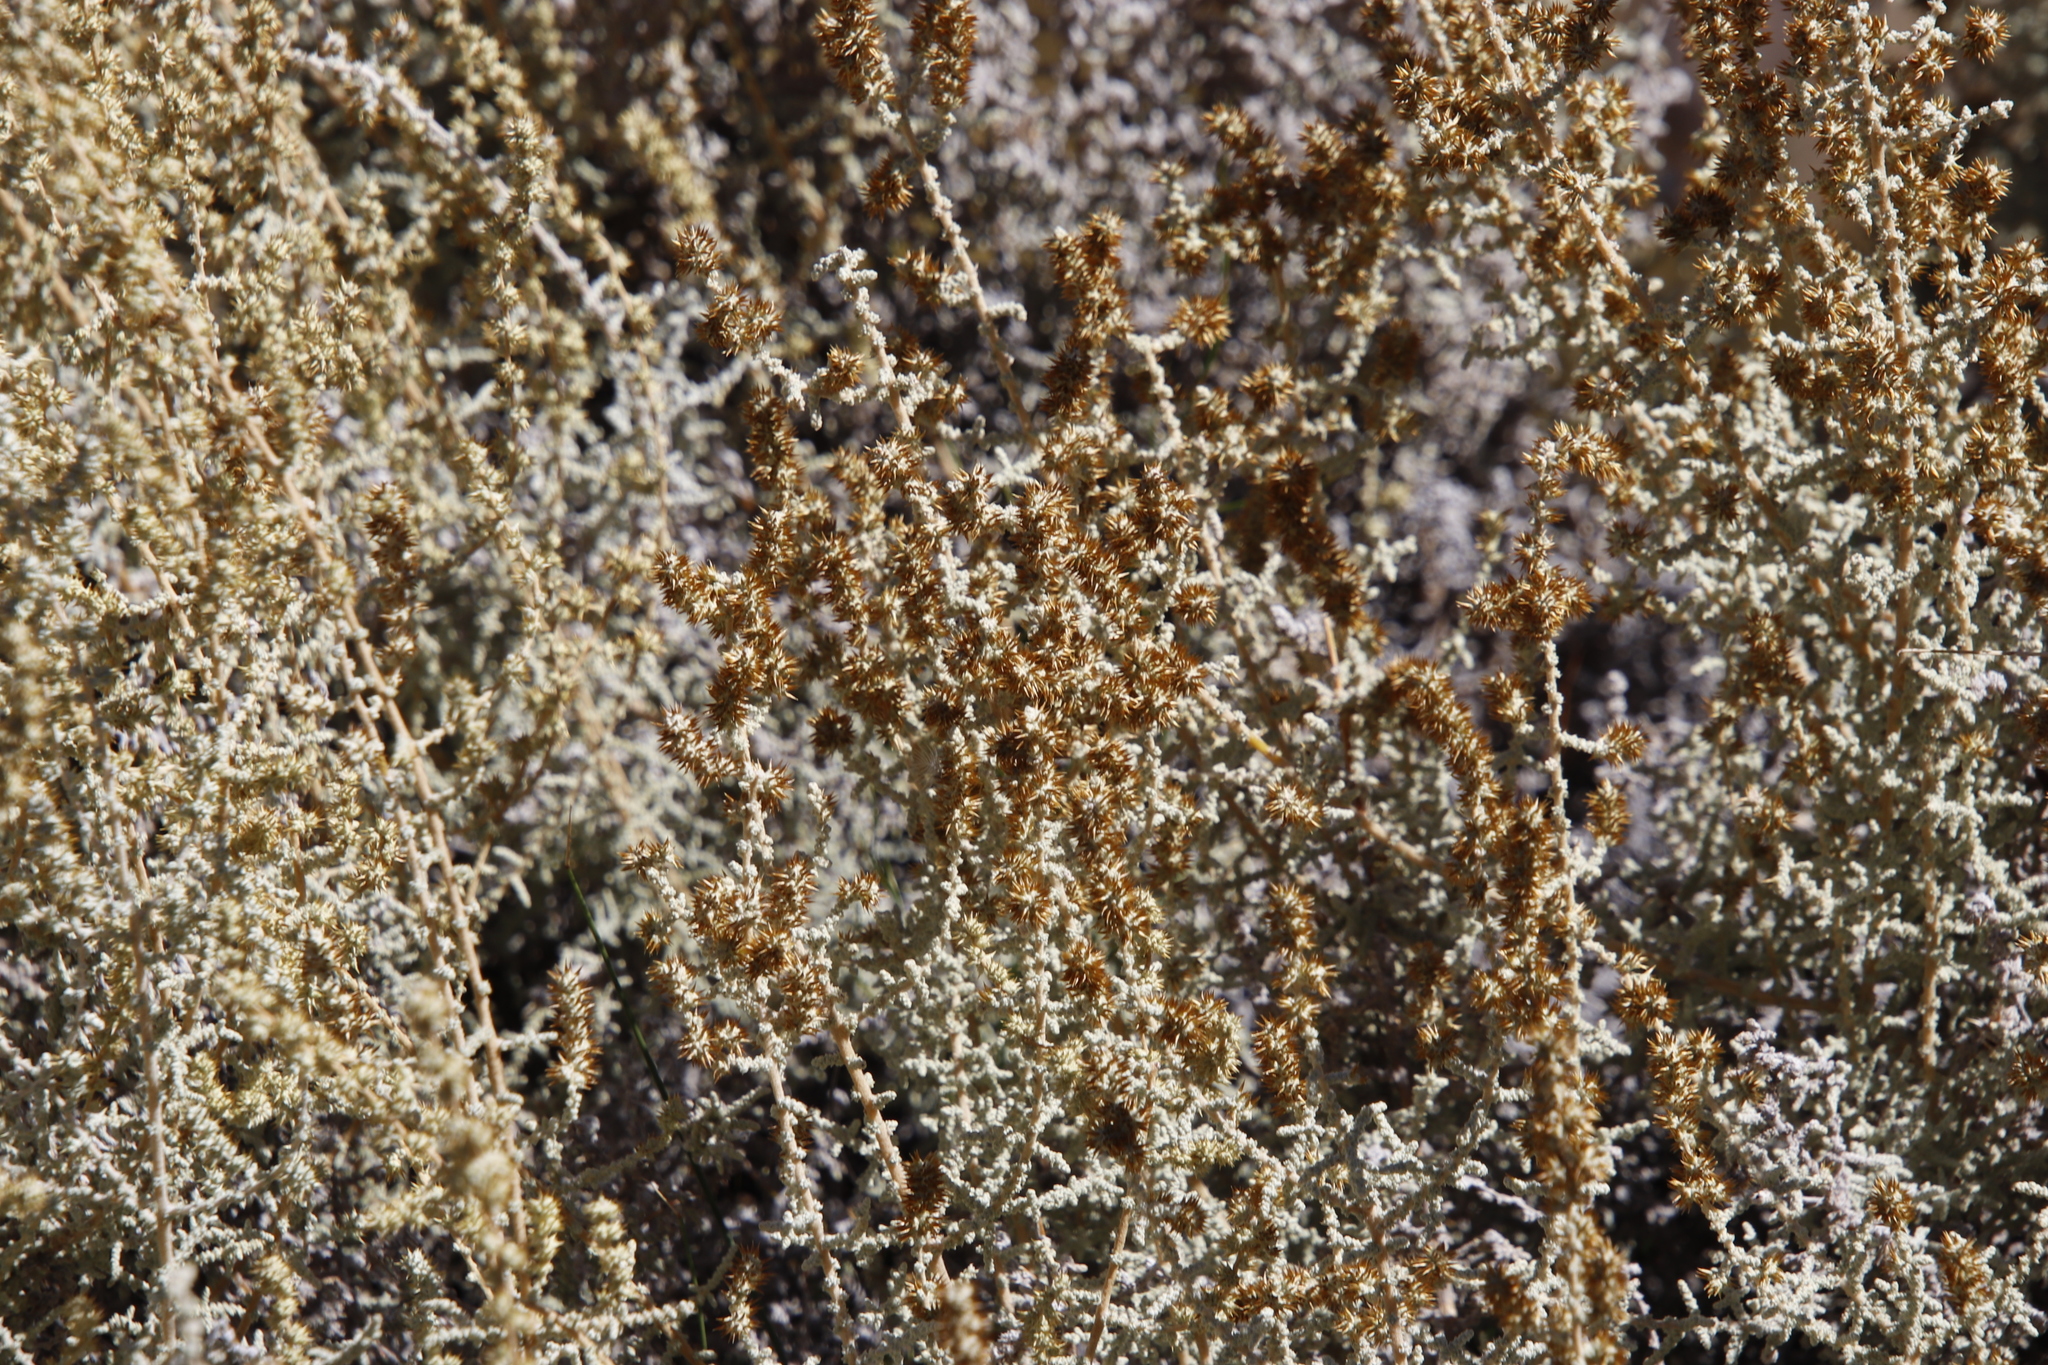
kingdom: Plantae
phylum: Tracheophyta
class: Magnoliopsida
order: Asterales
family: Asteraceae
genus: Seriphium
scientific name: Seriphium plumosum
